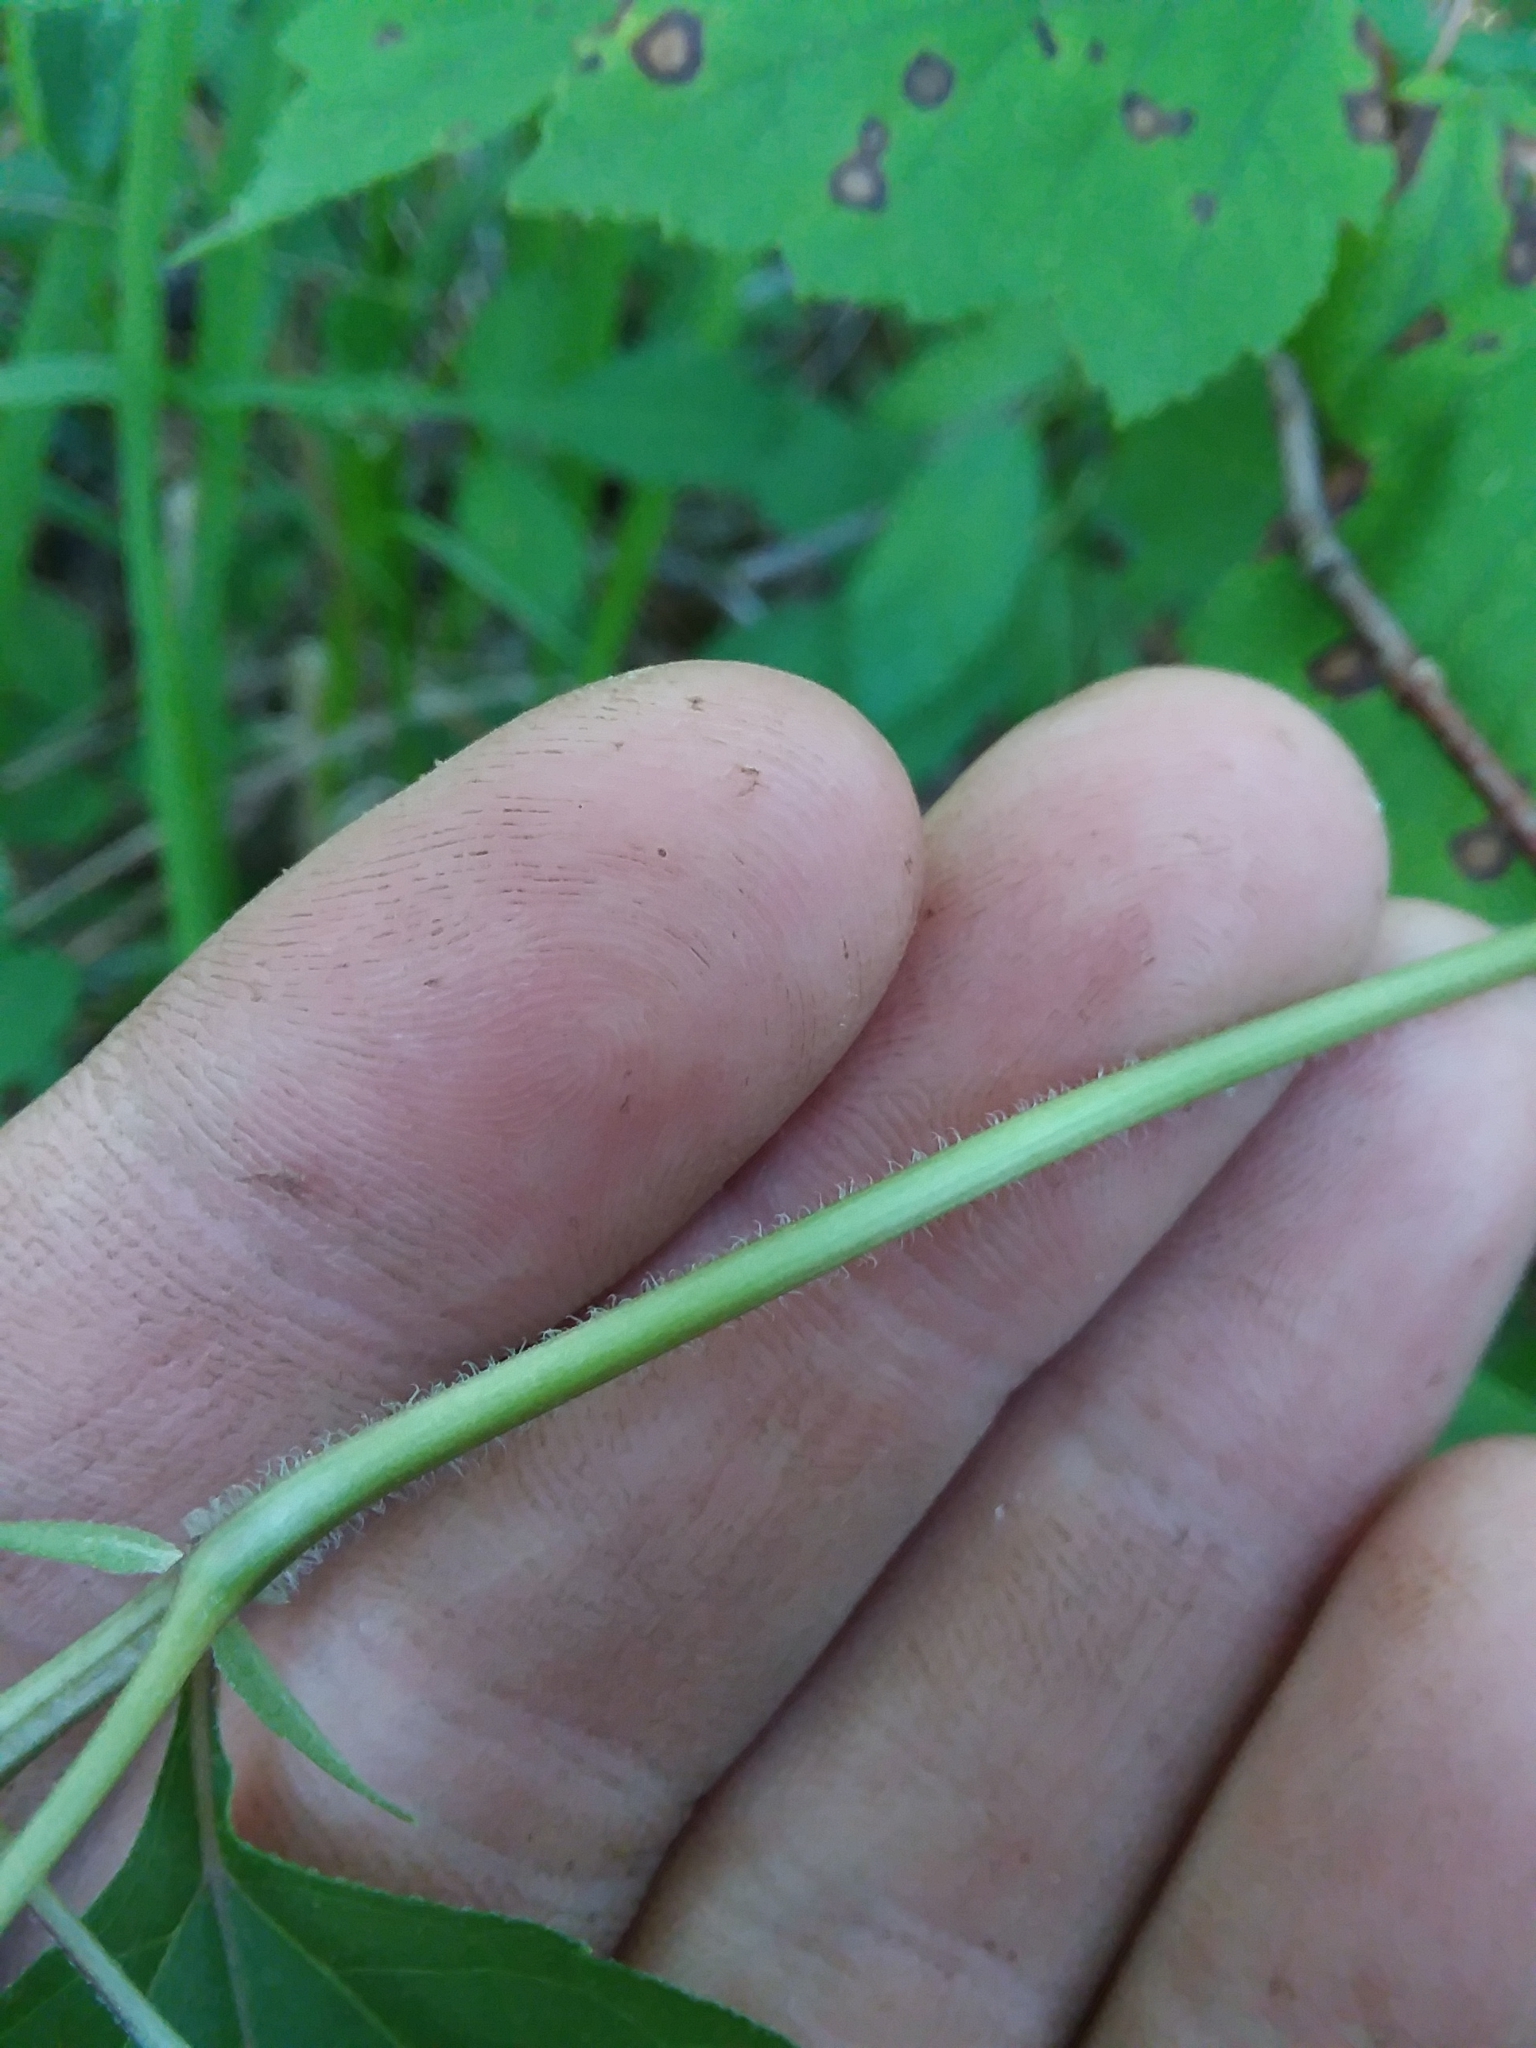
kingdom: Plantae
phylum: Tracheophyta
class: Magnoliopsida
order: Asterales
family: Asteraceae
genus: Heliopsis
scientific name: Heliopsis gracilis
